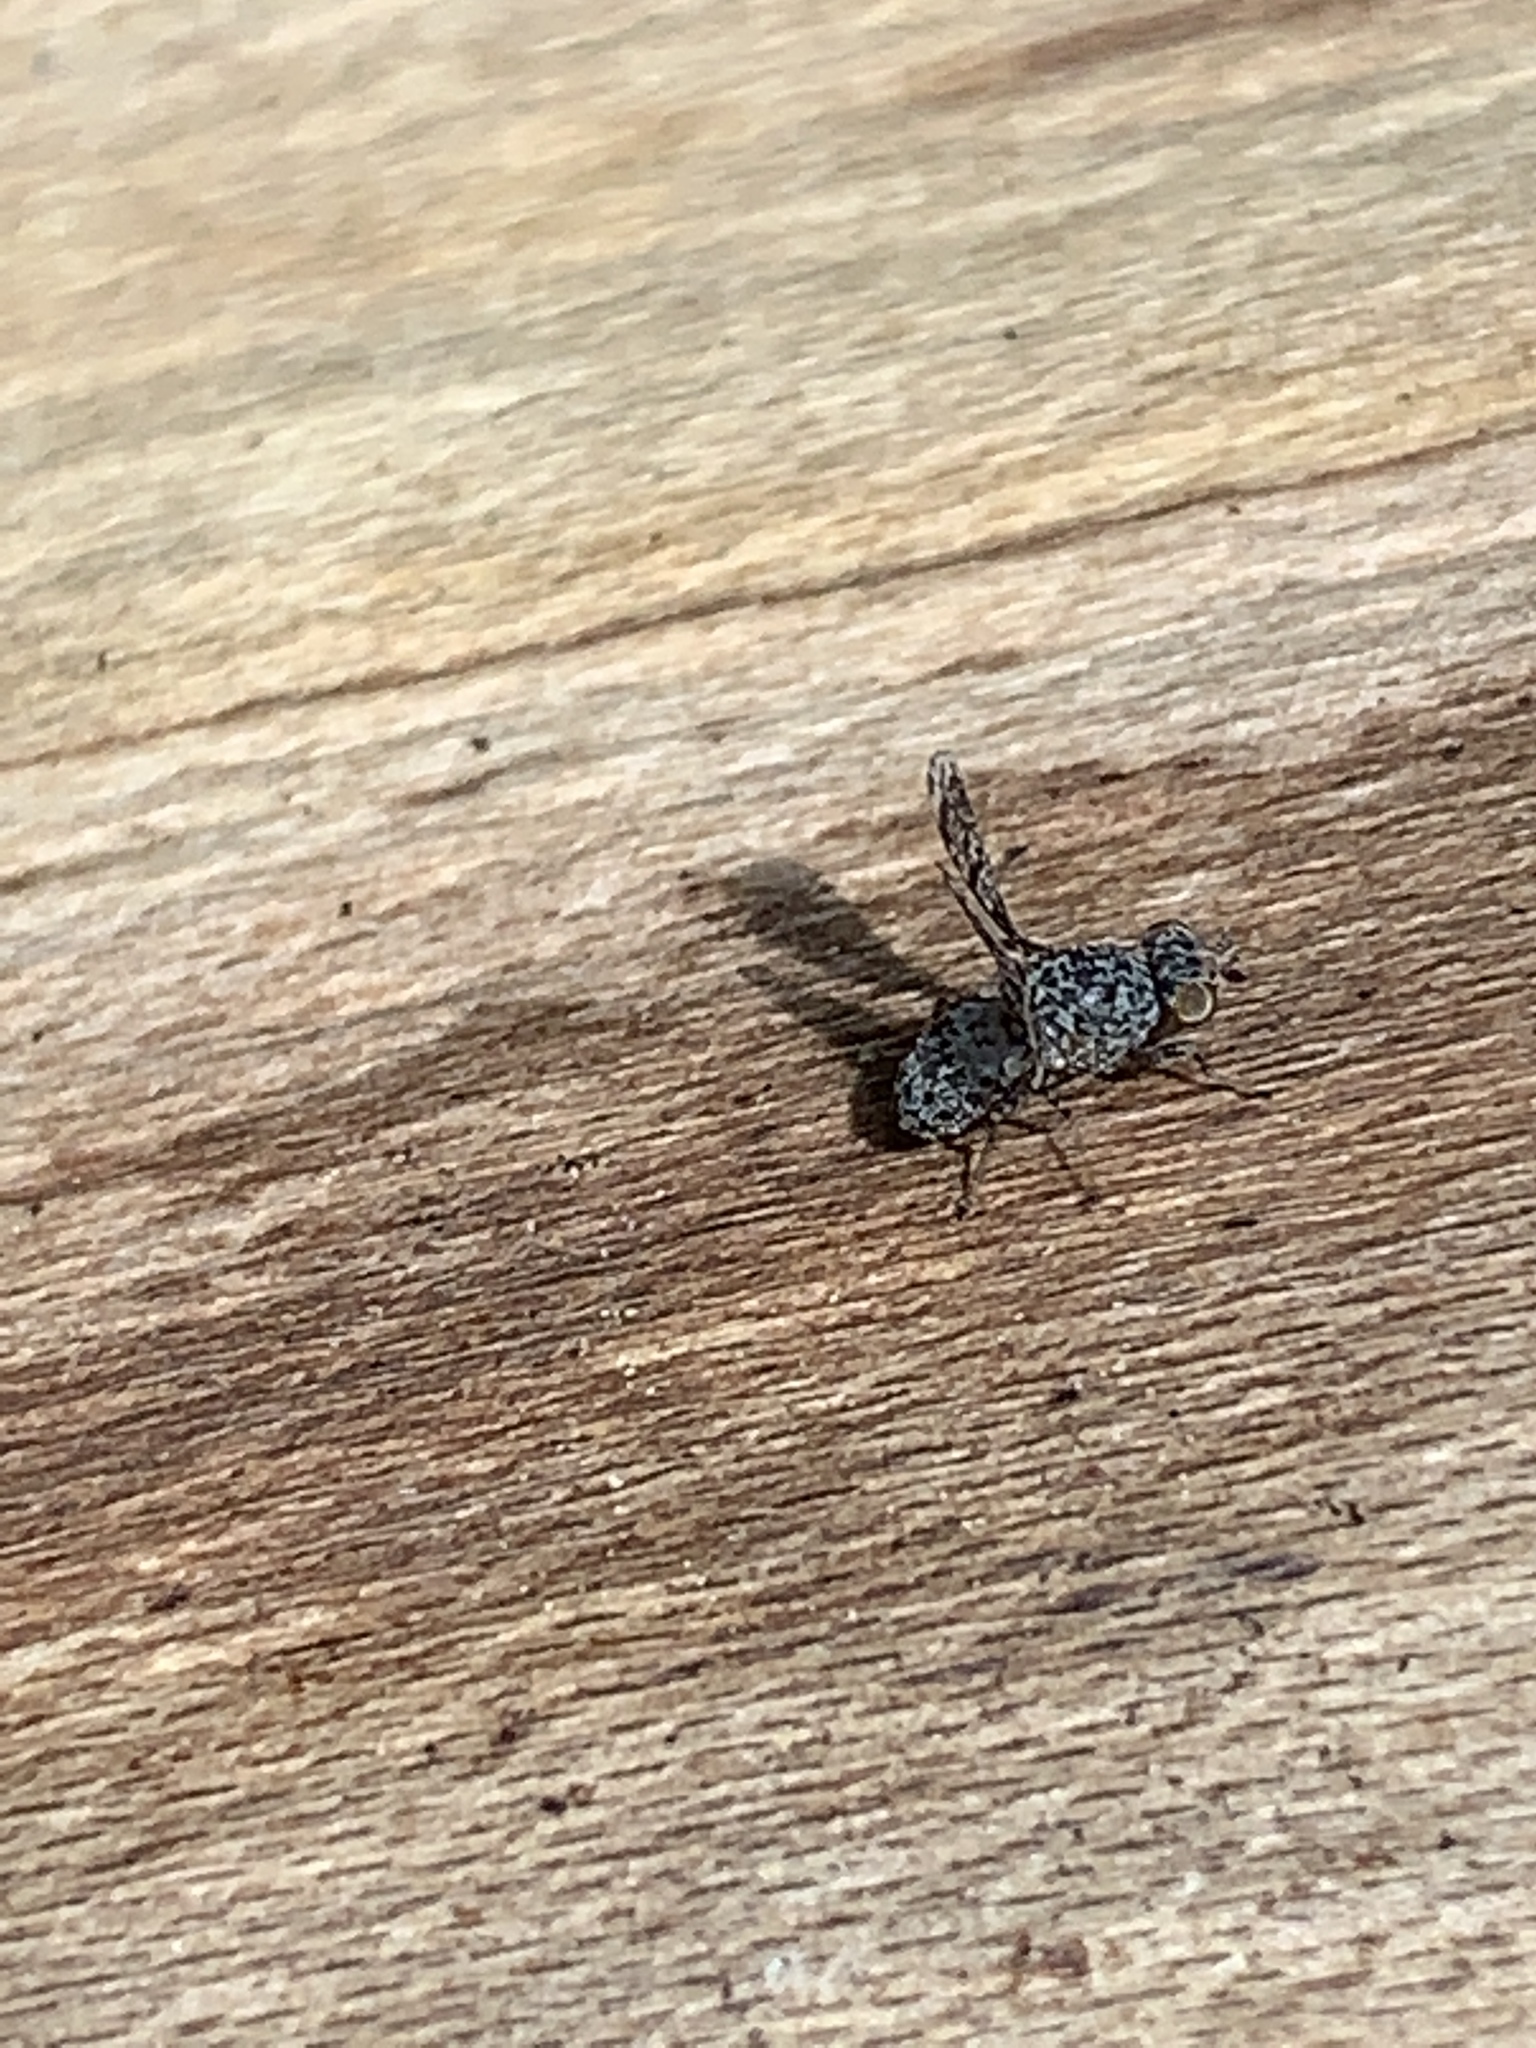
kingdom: Animalia
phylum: Arthropoda
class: Insecta
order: Diptera
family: Ulidiidae
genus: Callopistromyia
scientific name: Callopistromyia annulipes
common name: Peacock fly
